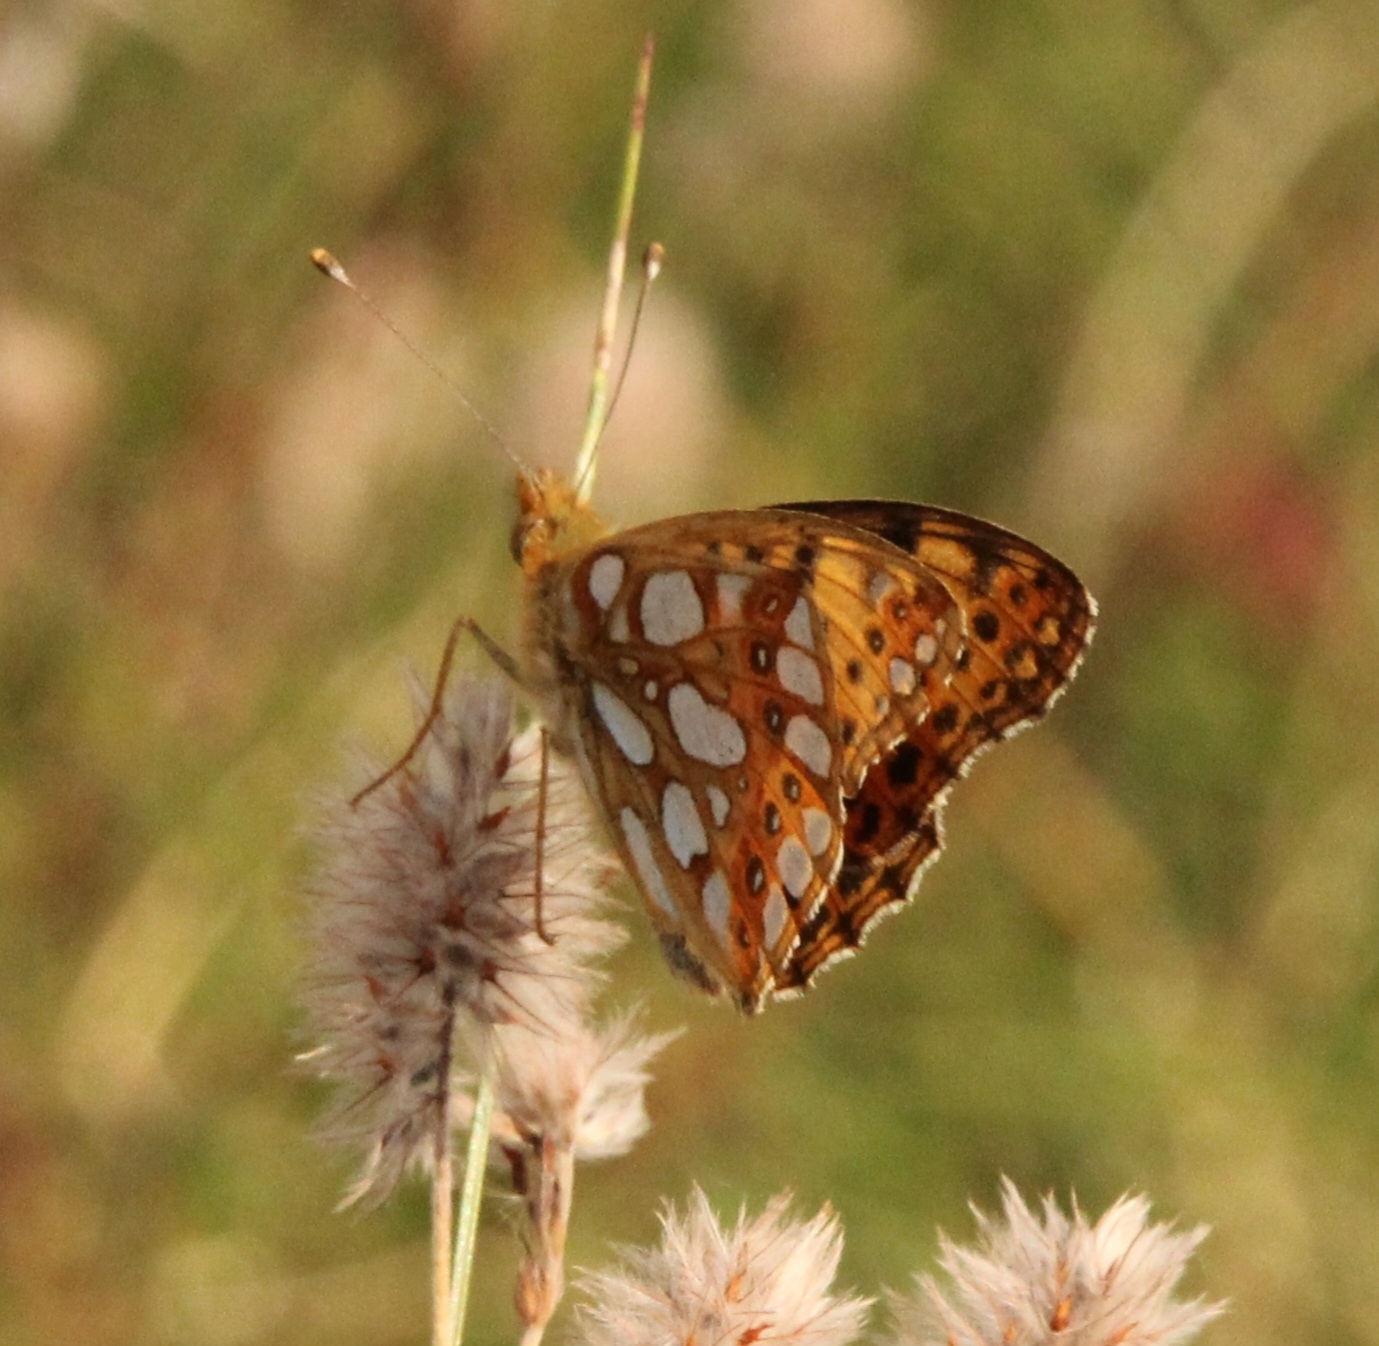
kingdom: Animalia
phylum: Arthropoda
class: Insecta
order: Lepidoptera
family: Nymphalidae
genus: Issoria
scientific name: Issoria lathonia
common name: Queen of spain fritillary
